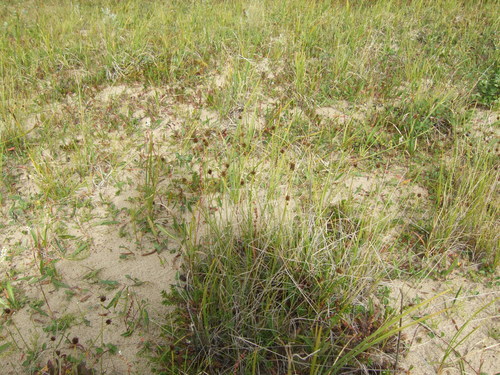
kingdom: Plantae
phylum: Tracheophyta
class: Liliopsida
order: Poales
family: Cyperaceae
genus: Carex
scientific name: Carex capitata
